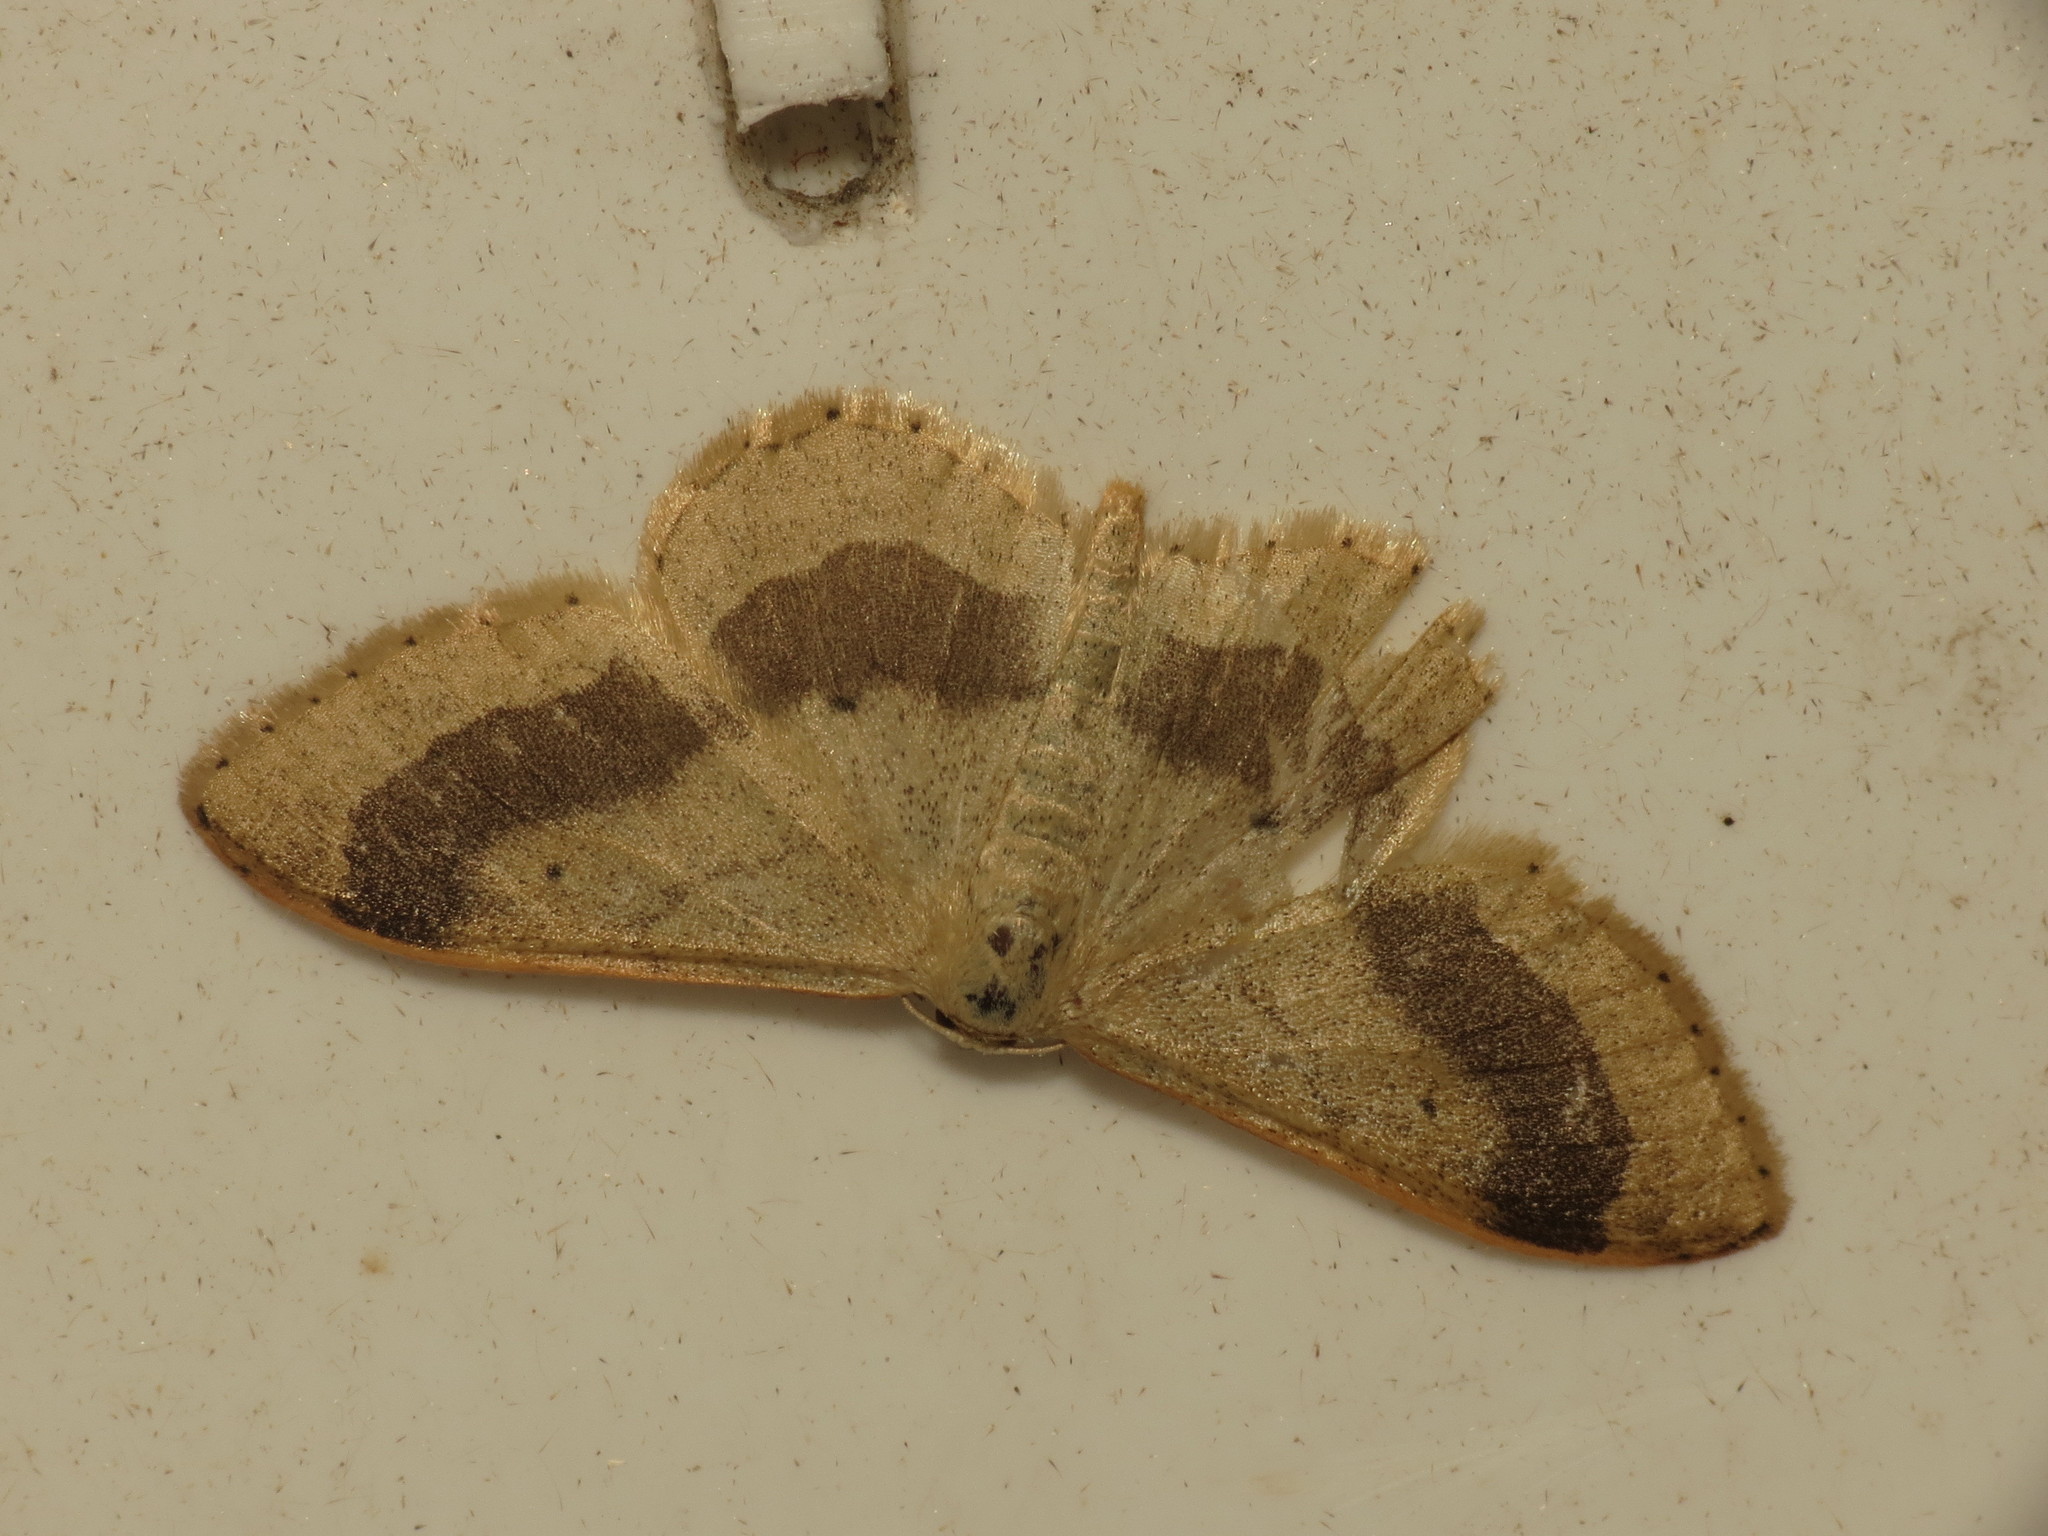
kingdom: Animalia
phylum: Arthropoda
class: Insecta
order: Lepidoptera
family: Geometridae
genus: Idaea
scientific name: Idaea aversata
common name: Riband wave
